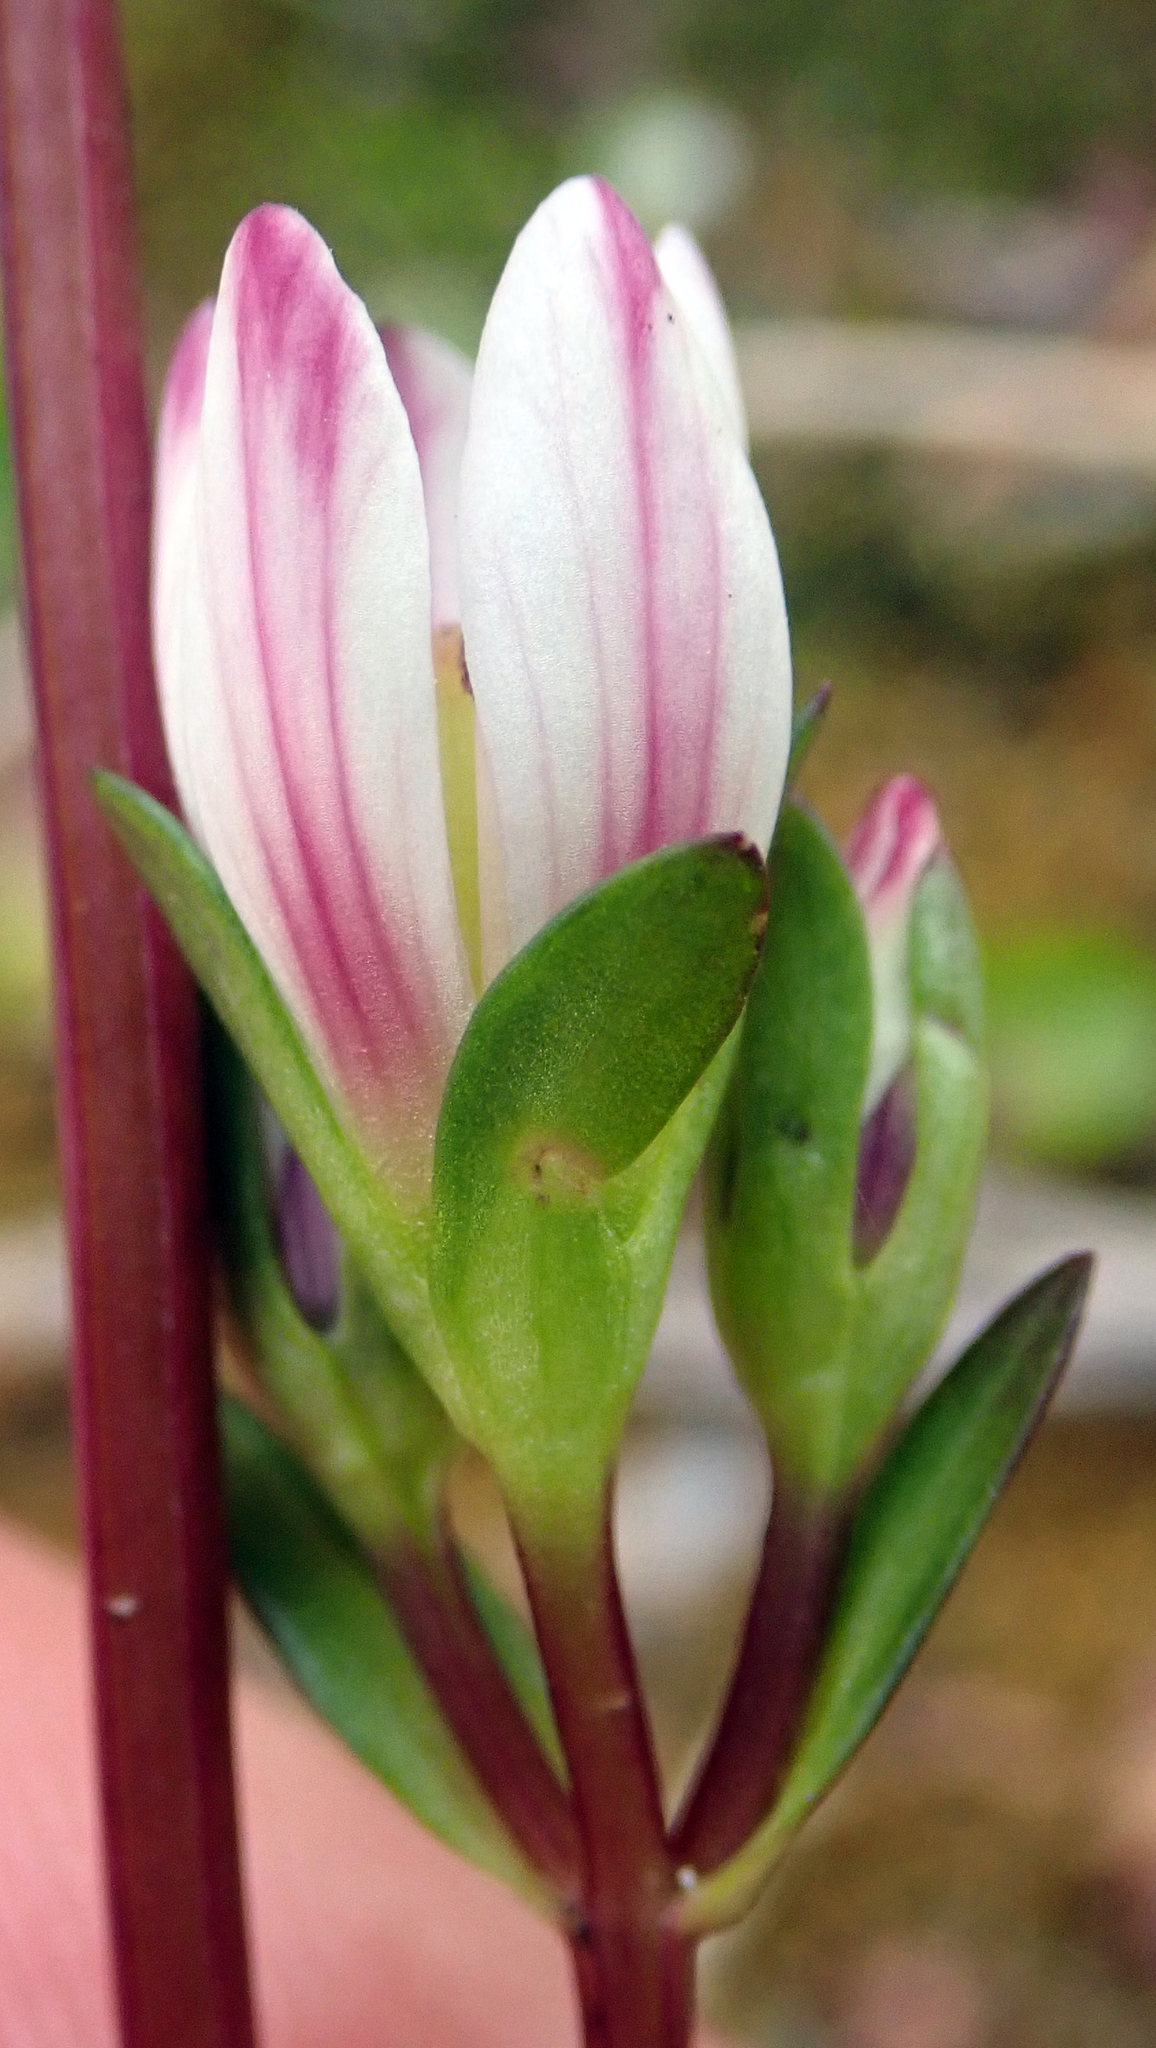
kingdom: Plantae
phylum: Tracheophyta
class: Magnoliopsida
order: Gentianales
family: Gentianaceae
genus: Gentianella
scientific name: Gentianella chathamica
